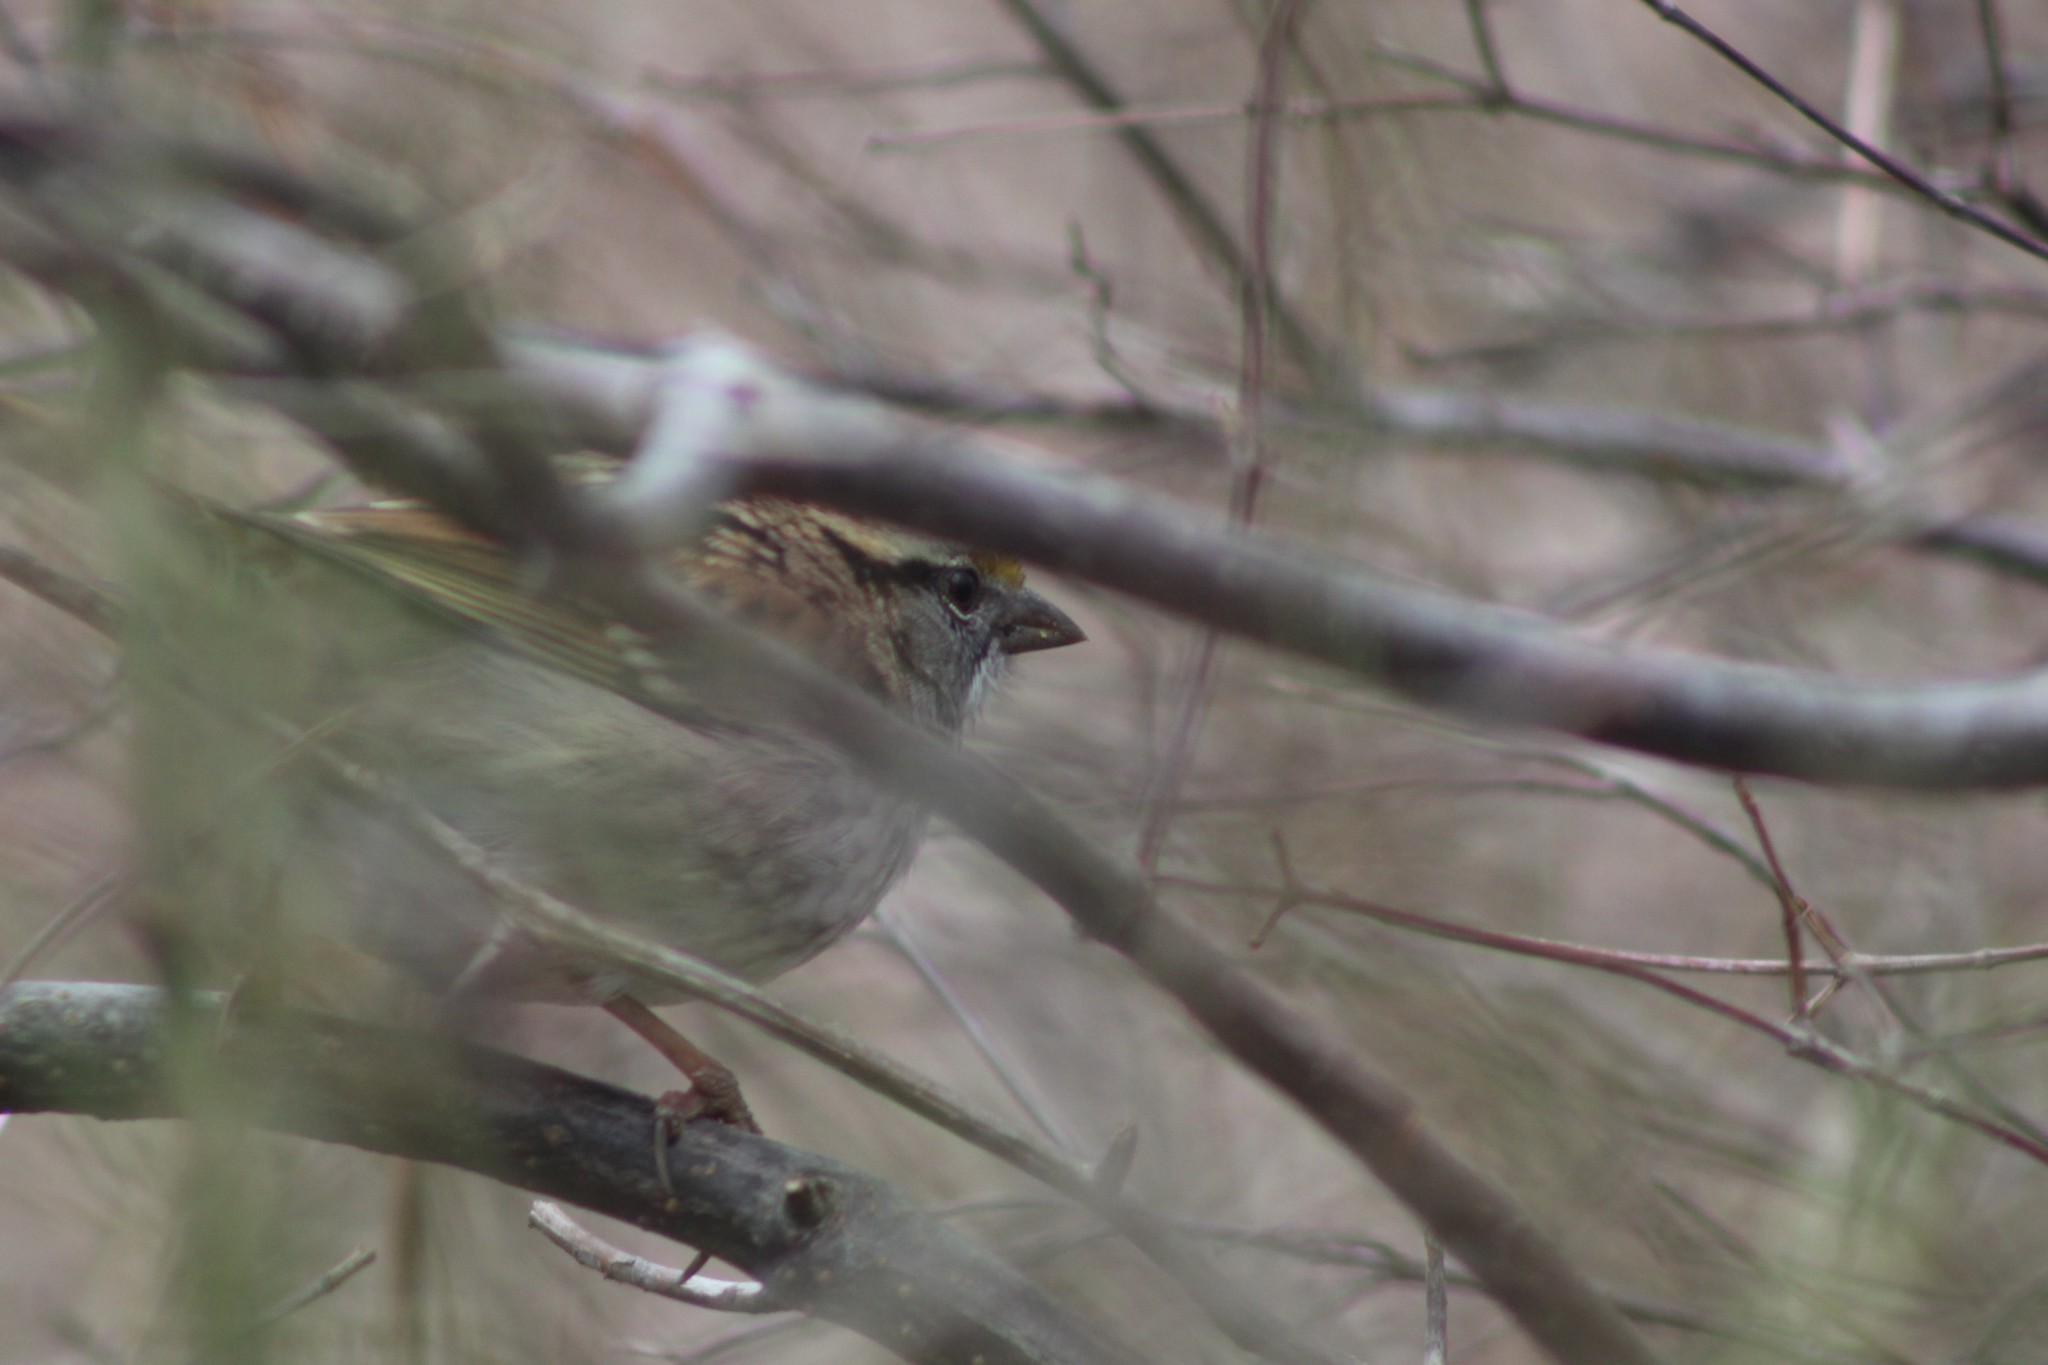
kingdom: Animalia
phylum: Chordata
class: Aves
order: Passeriformes
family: Passerellidae
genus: Zonotrichia
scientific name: Zonotrichia albicollis
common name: White-throated sparrow
